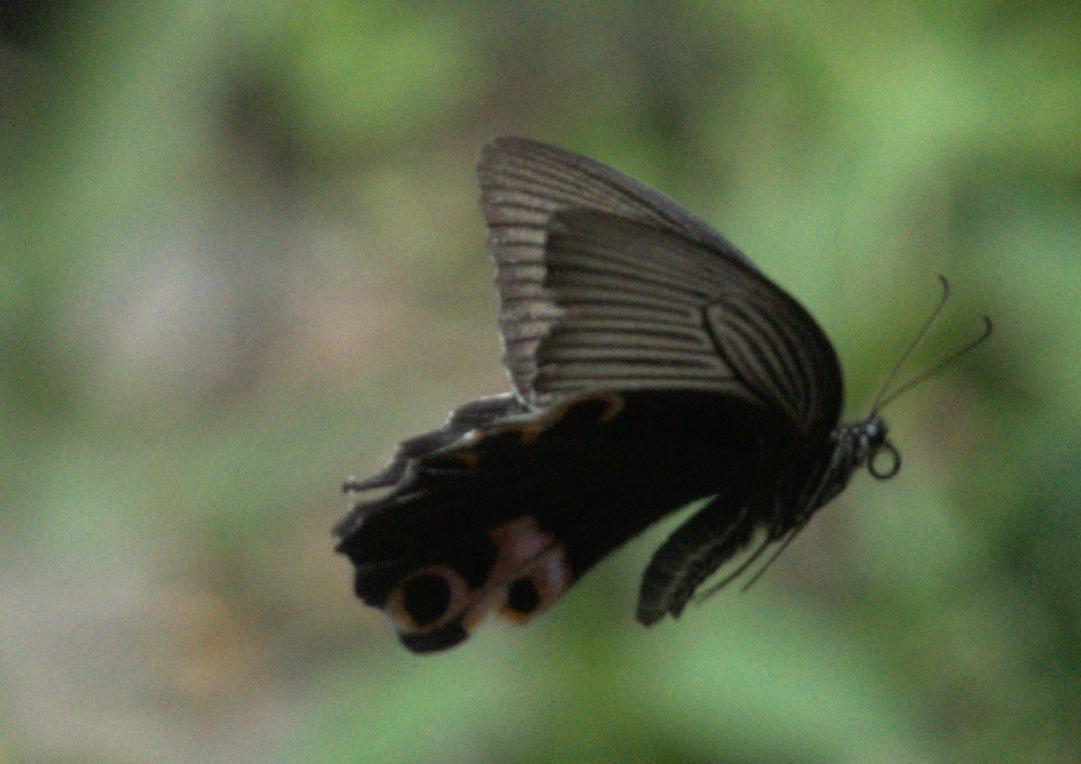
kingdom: Animalia
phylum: Arthropoda
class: Insecta
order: Lepidoptera
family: Papilionidae
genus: Papilio
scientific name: Papilio protenor
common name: Spangle
